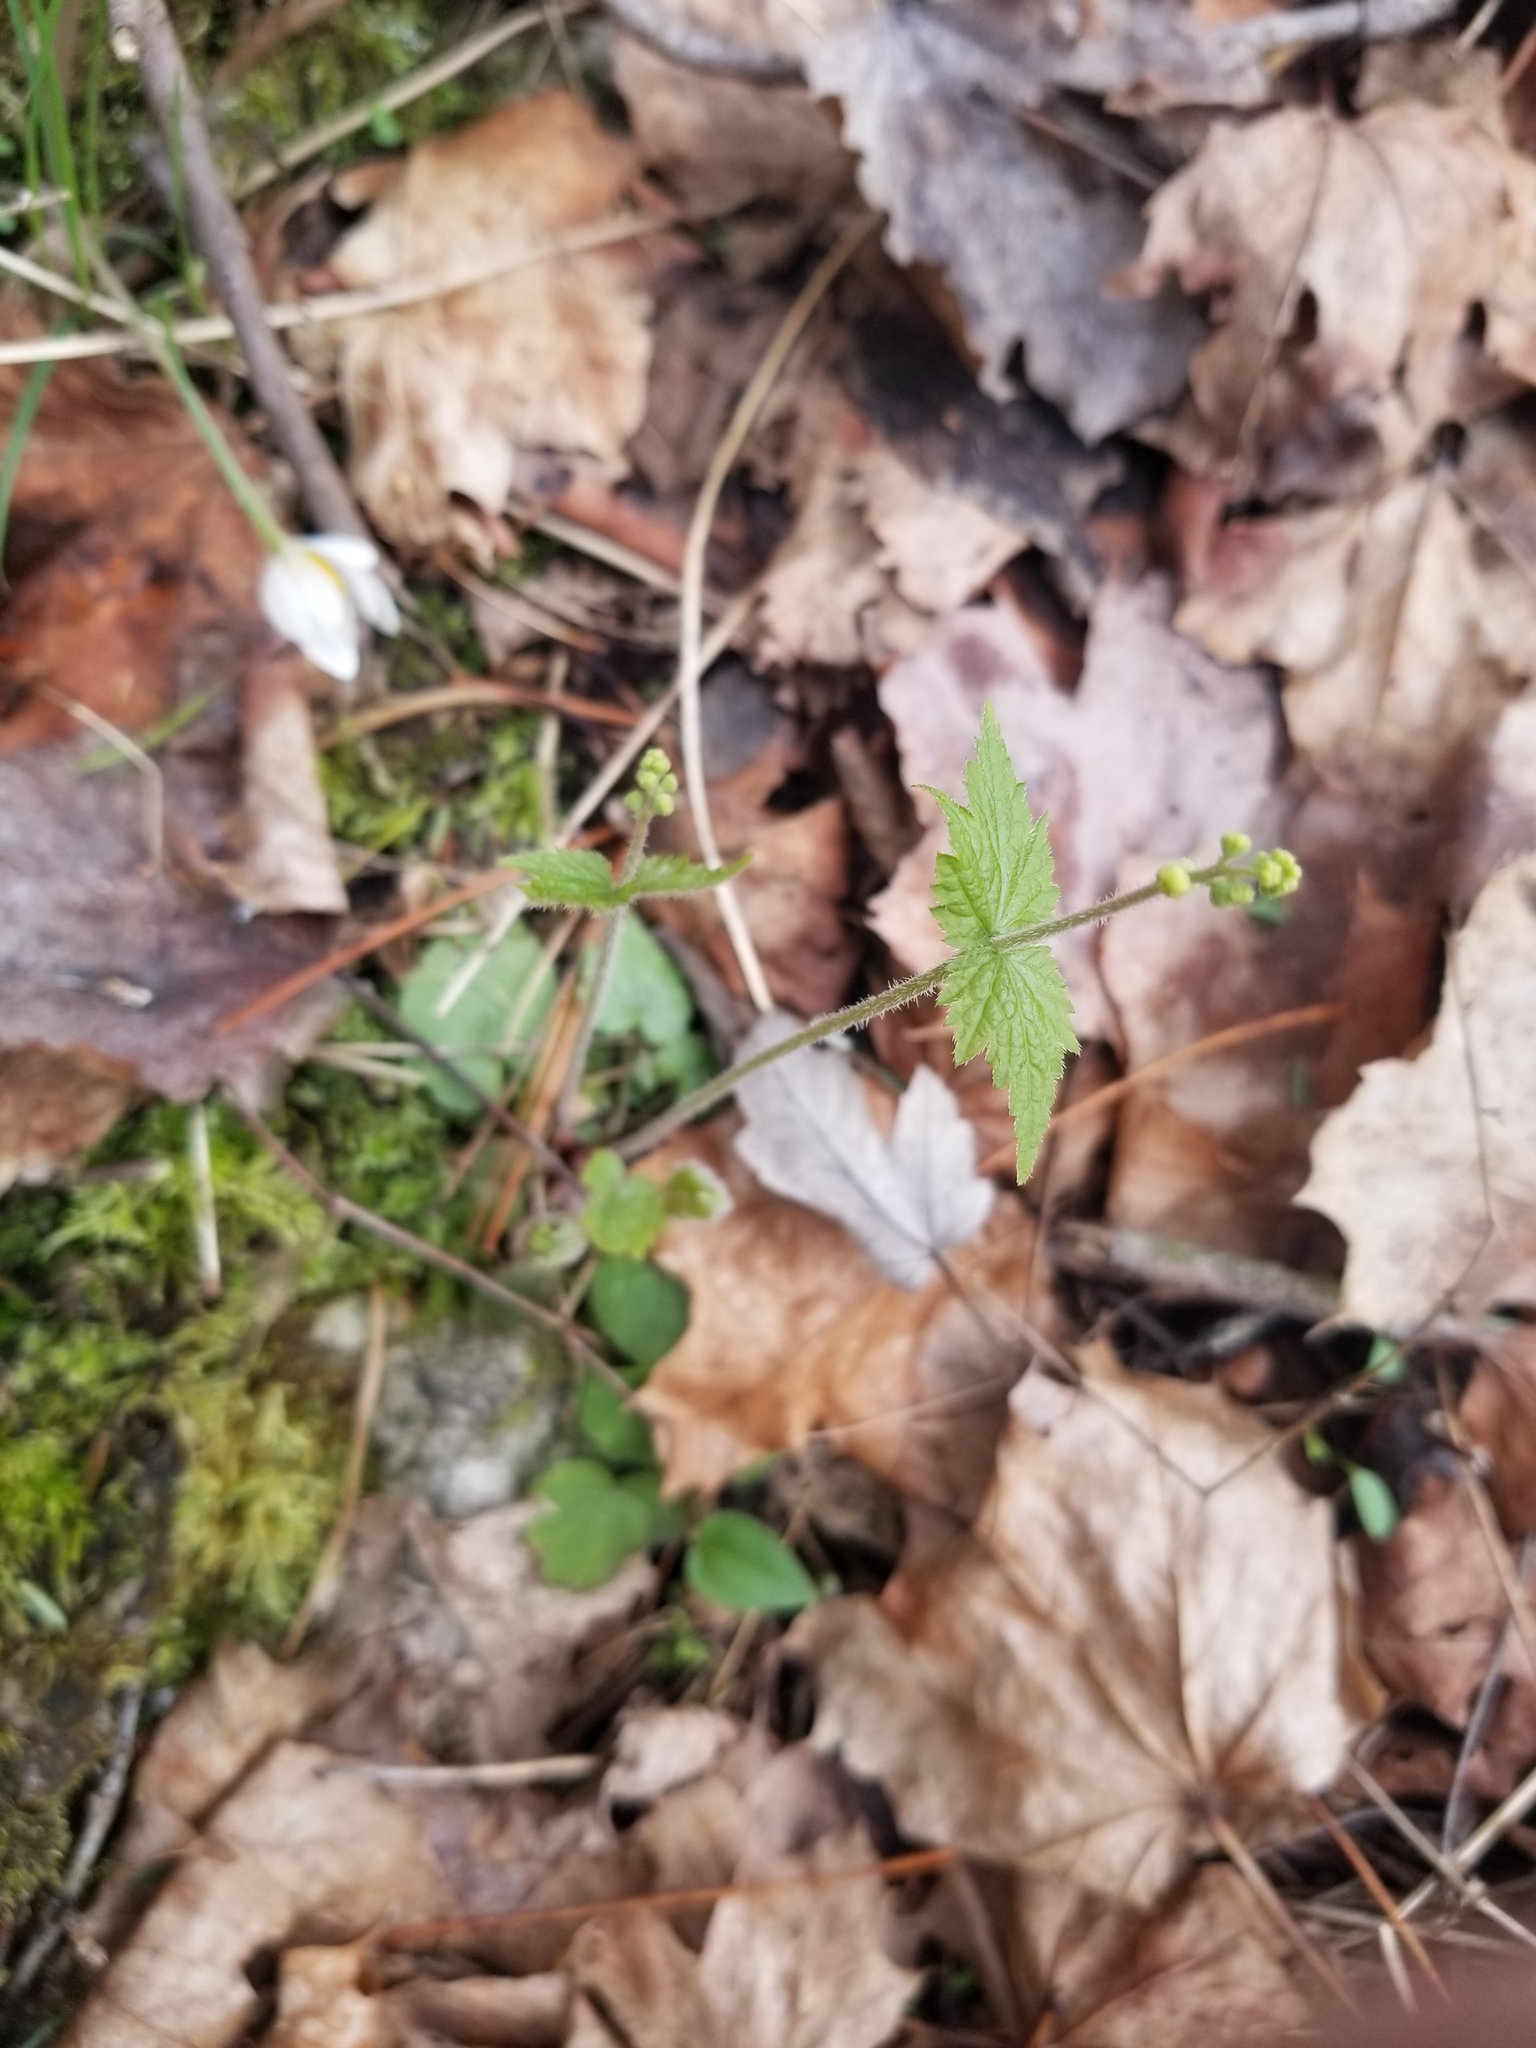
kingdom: Plantae
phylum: Tracheophyta
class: Magnoliopsida
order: Saxifragales
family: Saxifragaceae
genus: Mitella
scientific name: Mitella diphylla
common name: Coolwort
